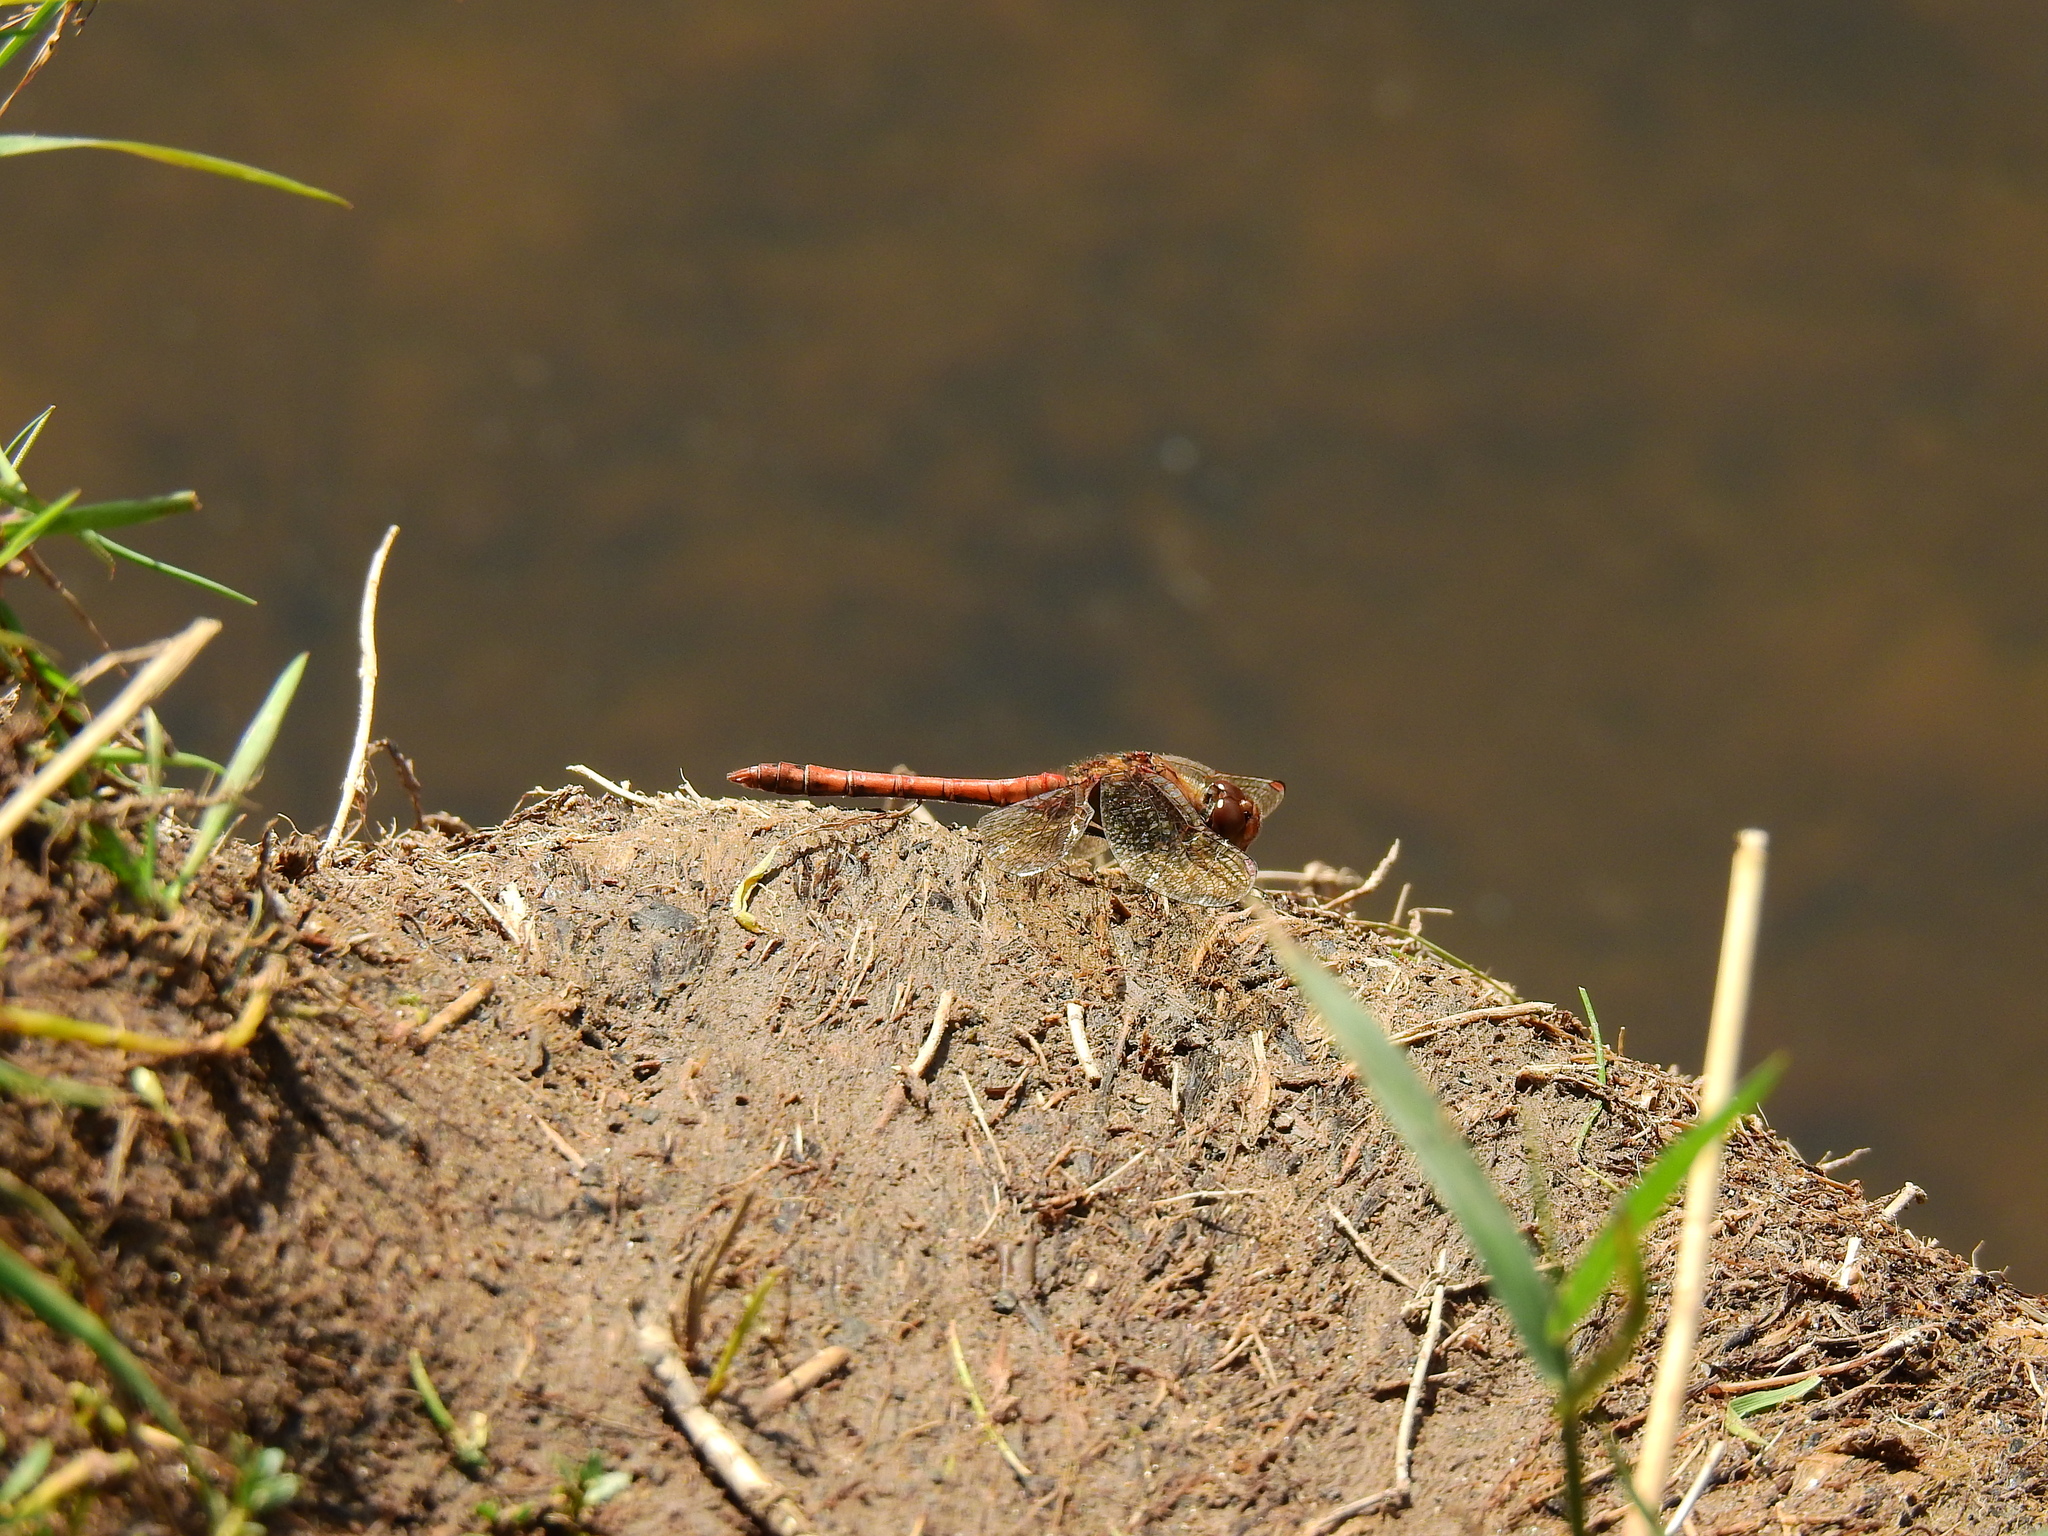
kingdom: Animalia
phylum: Arthropoda
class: Insecta
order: Odonata
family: Libellulidae
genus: Sympetrum
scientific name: Sympetrum striolatum
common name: Common darter
